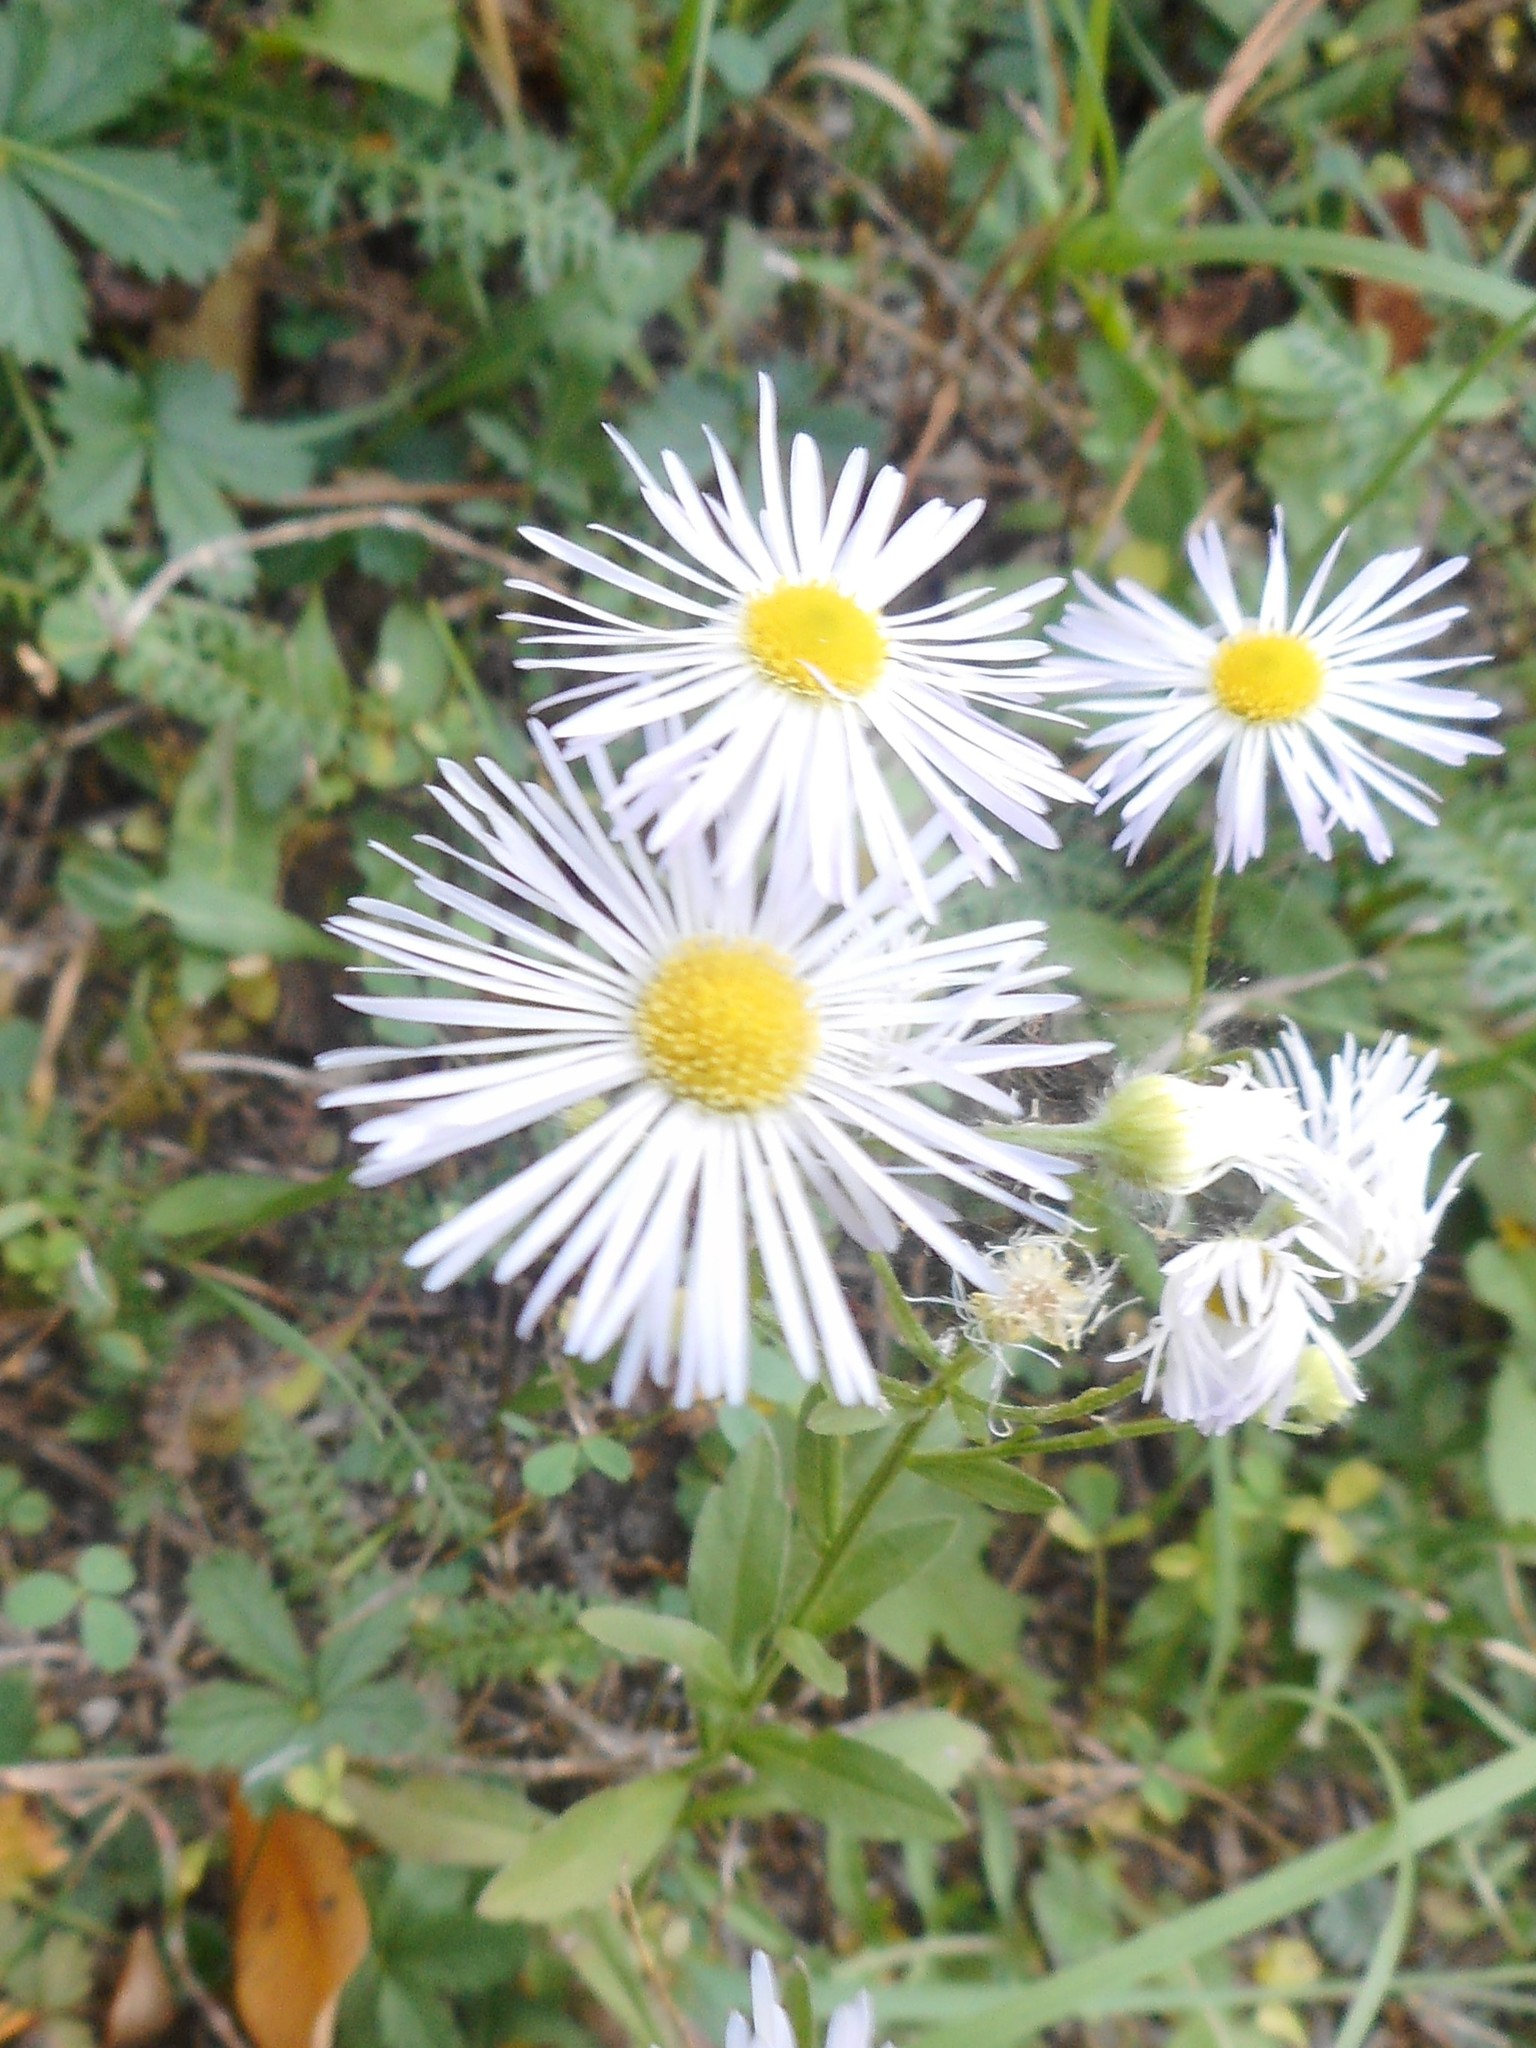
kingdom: Plantae
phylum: Tracheophyta
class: Magnoliopsida
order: Asterales
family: Asteraceae
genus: Erigeron
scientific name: Erigeron annuus
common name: Tall fleabane
